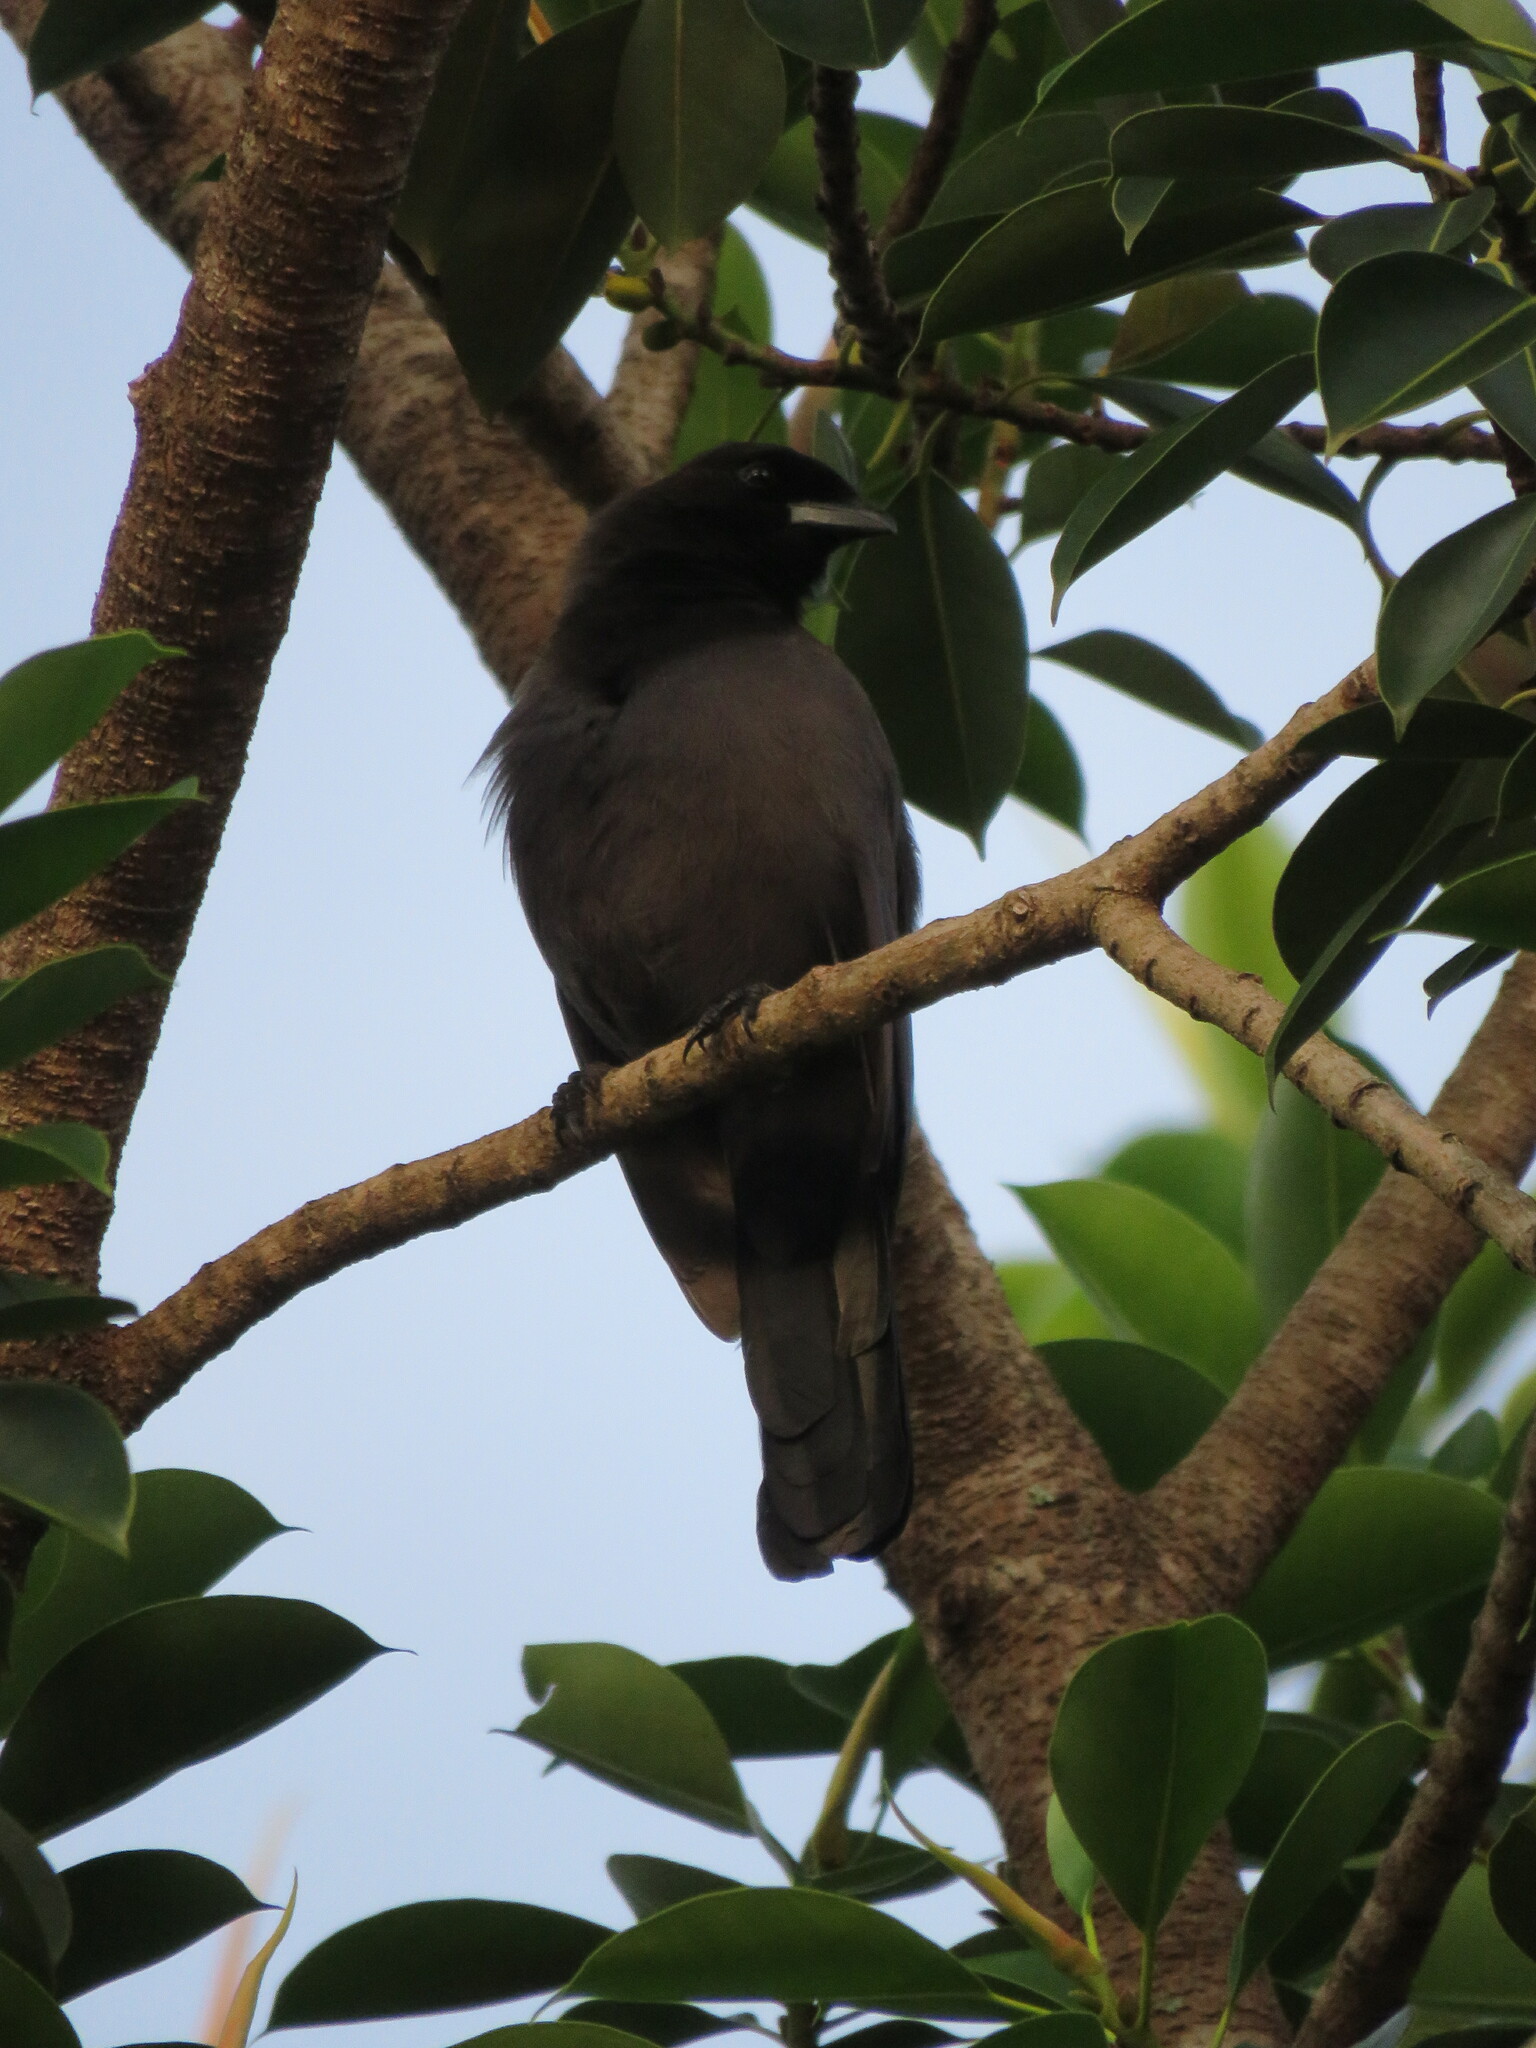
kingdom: Animalia
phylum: Chordata
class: Aves
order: Passeriformes
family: Corvidae
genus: Cyanocorax
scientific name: Cyanocorax cyanomelas
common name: Purplish jay
